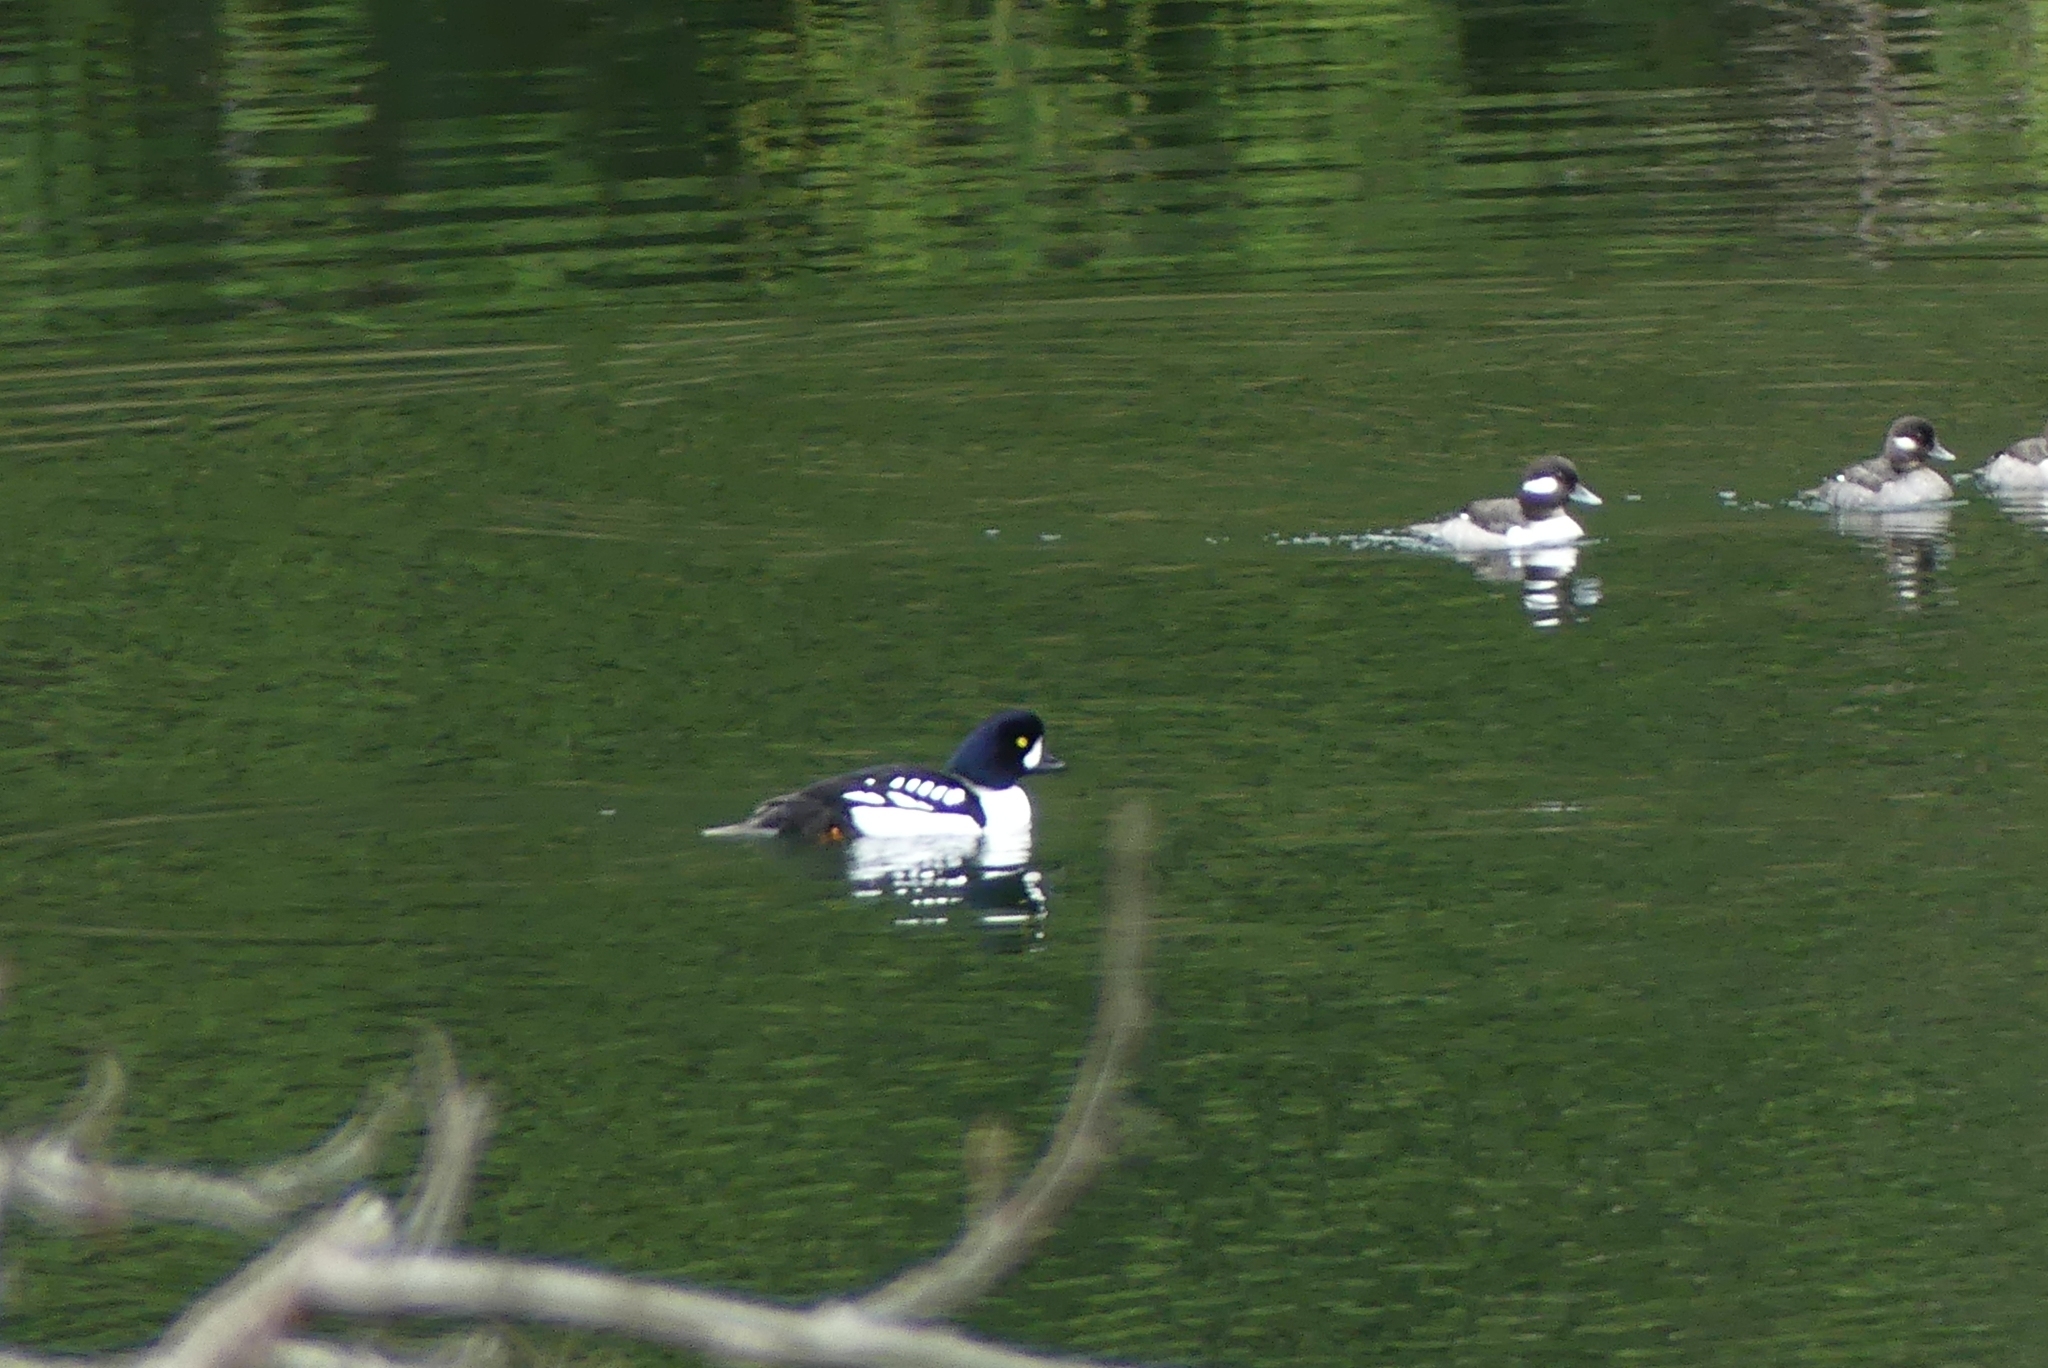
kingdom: Animalia
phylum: Chordata
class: Aves
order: Anseriformes
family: Anatidae
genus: Bucephala
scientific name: Bucephala albeola
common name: Bufflehead
